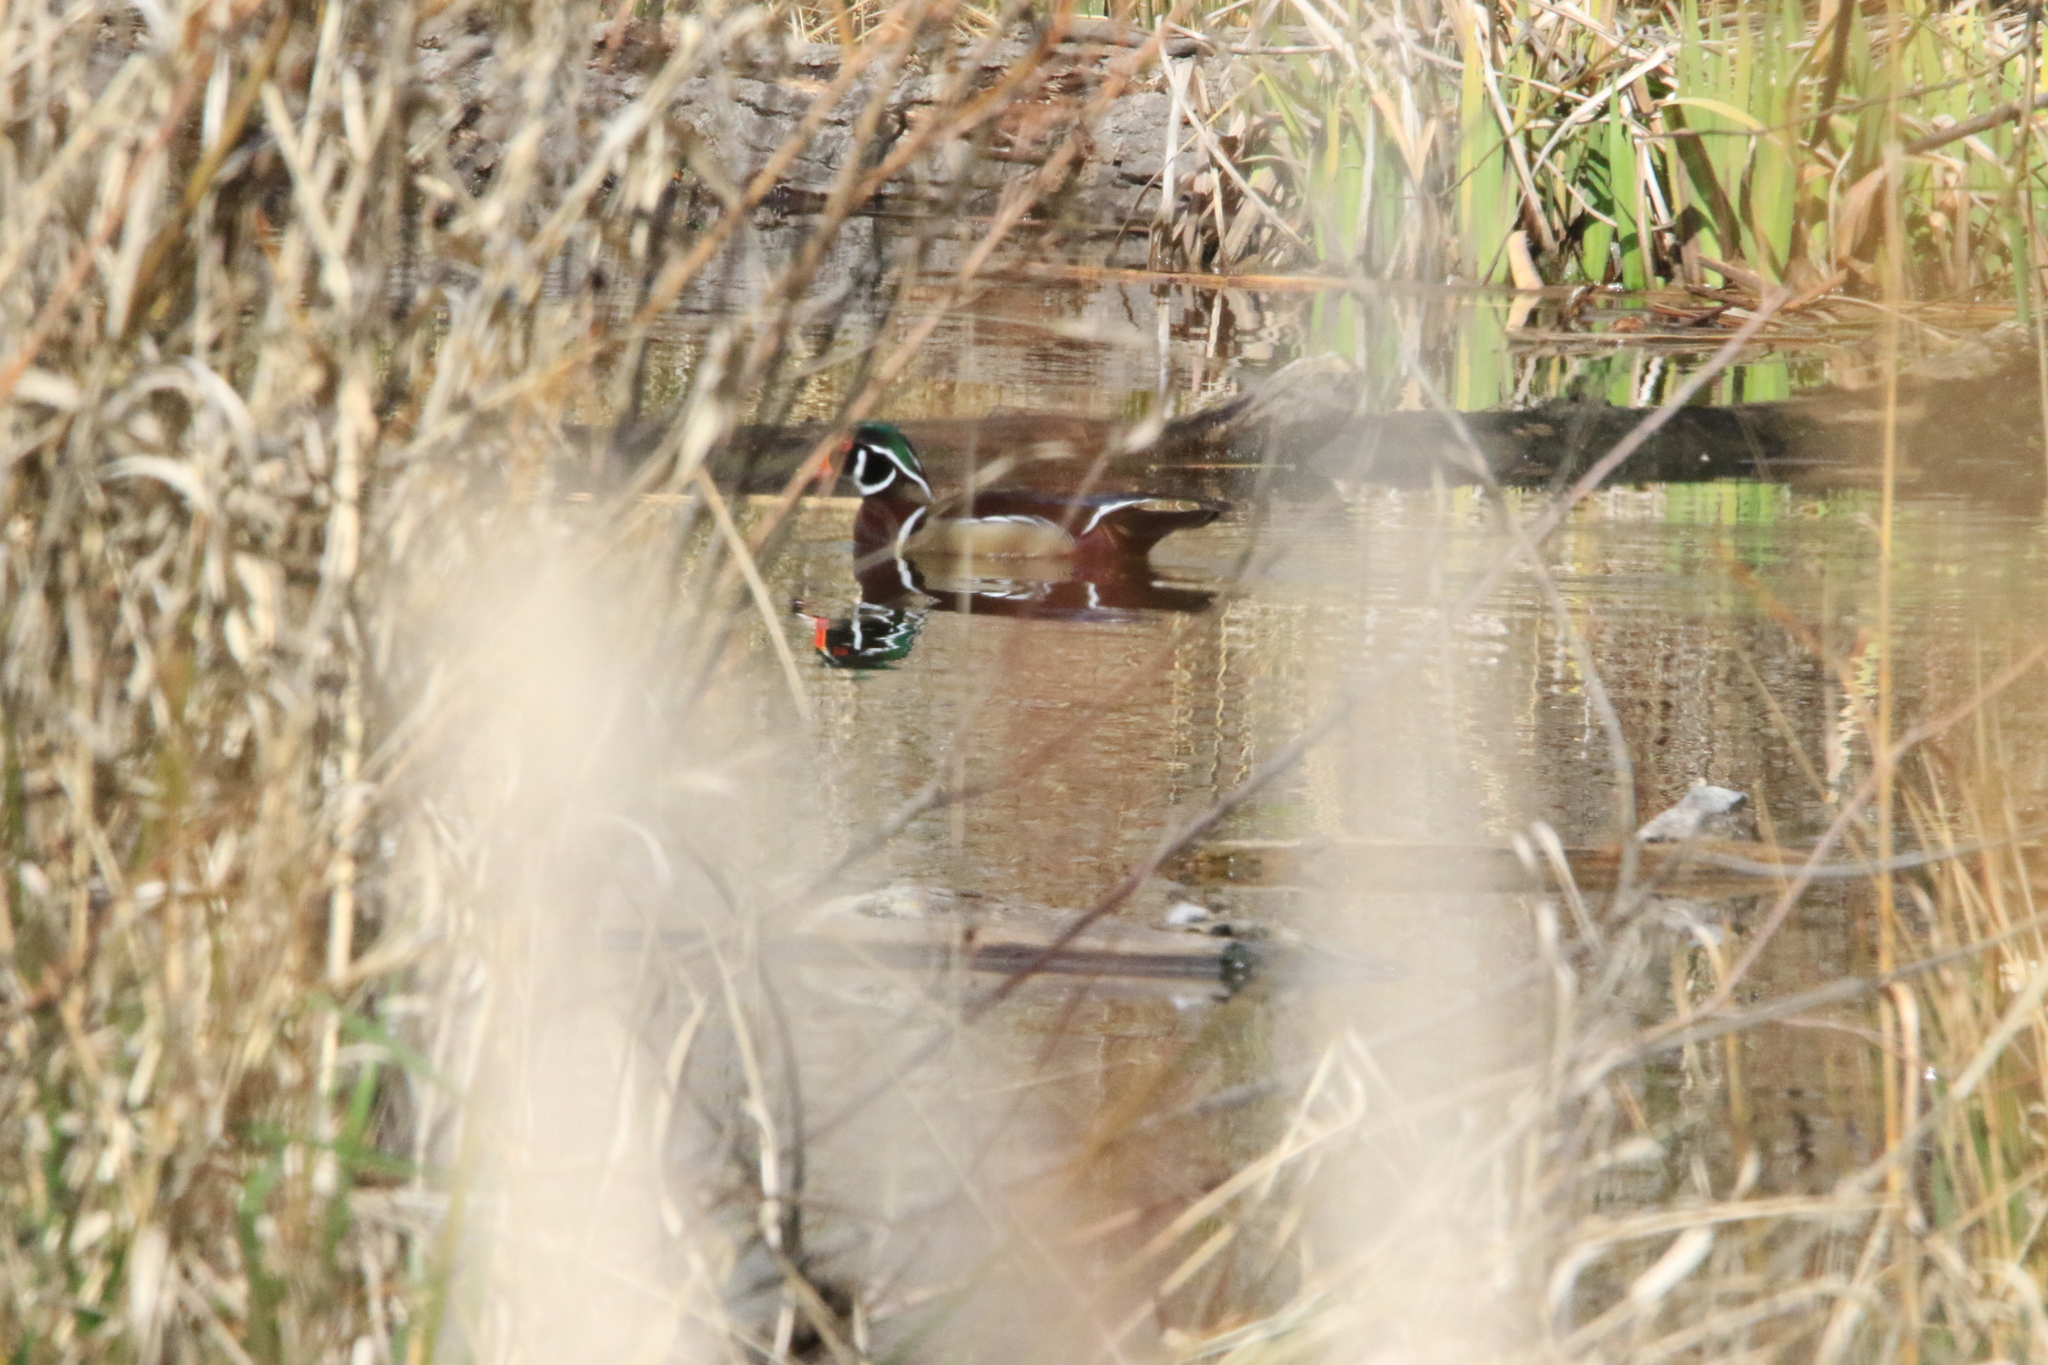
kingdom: Animalia
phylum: Chordata
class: Aves
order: Anseriformes
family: Anatidae
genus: Aix
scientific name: Aix sponsa
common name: Wood duck
